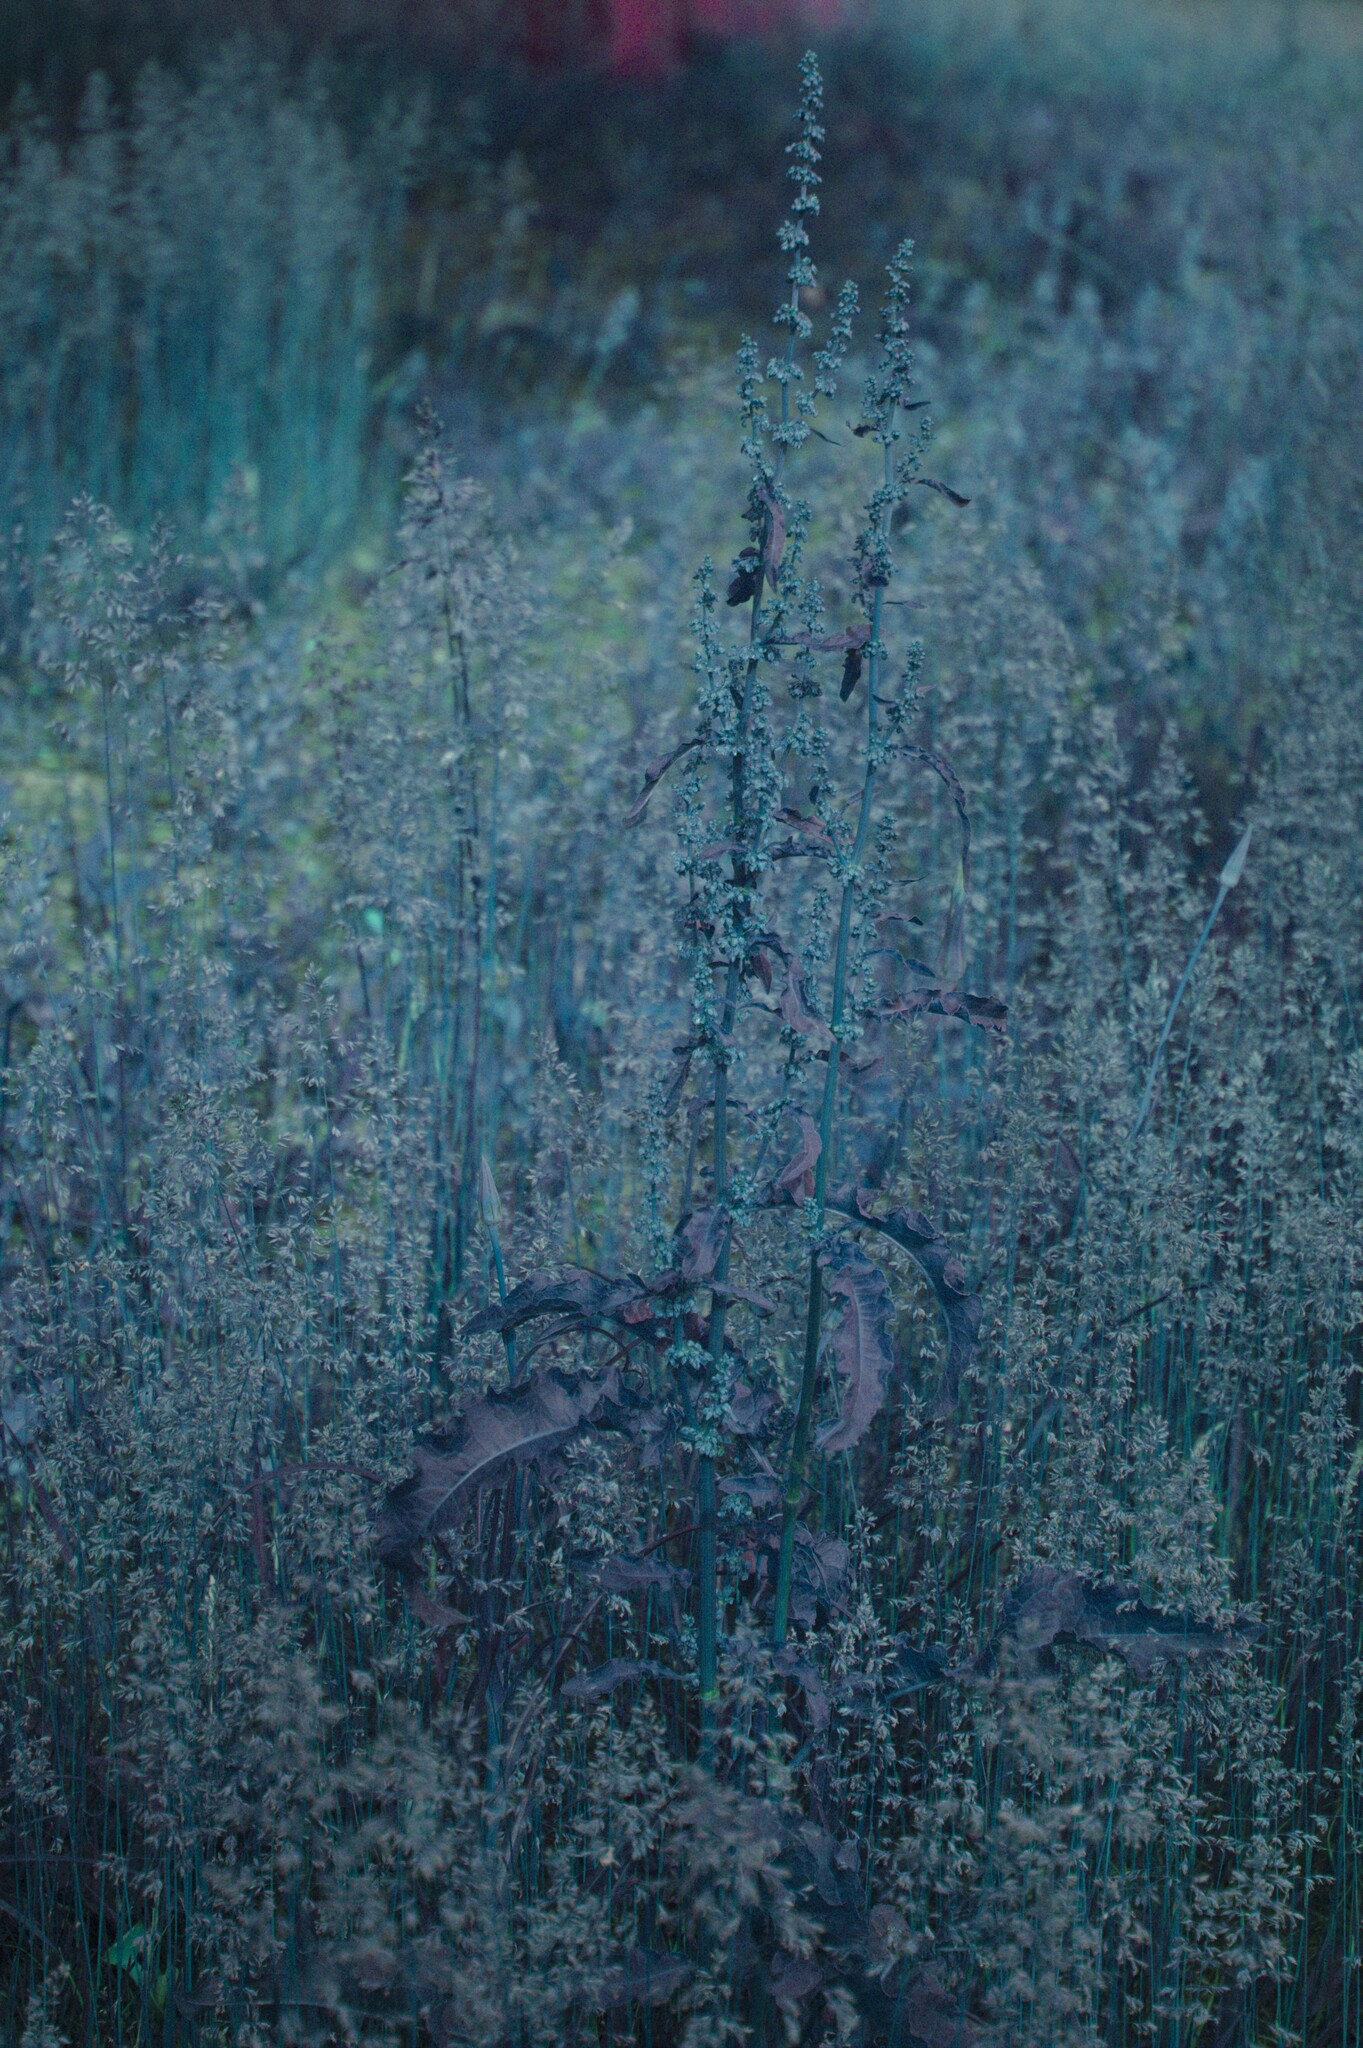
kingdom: Plantae
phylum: Tracheophyta
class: Liliopsida
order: Poales
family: Poaceae
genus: Poa
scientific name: Poa pratensis
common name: Kentucky bluegrass
